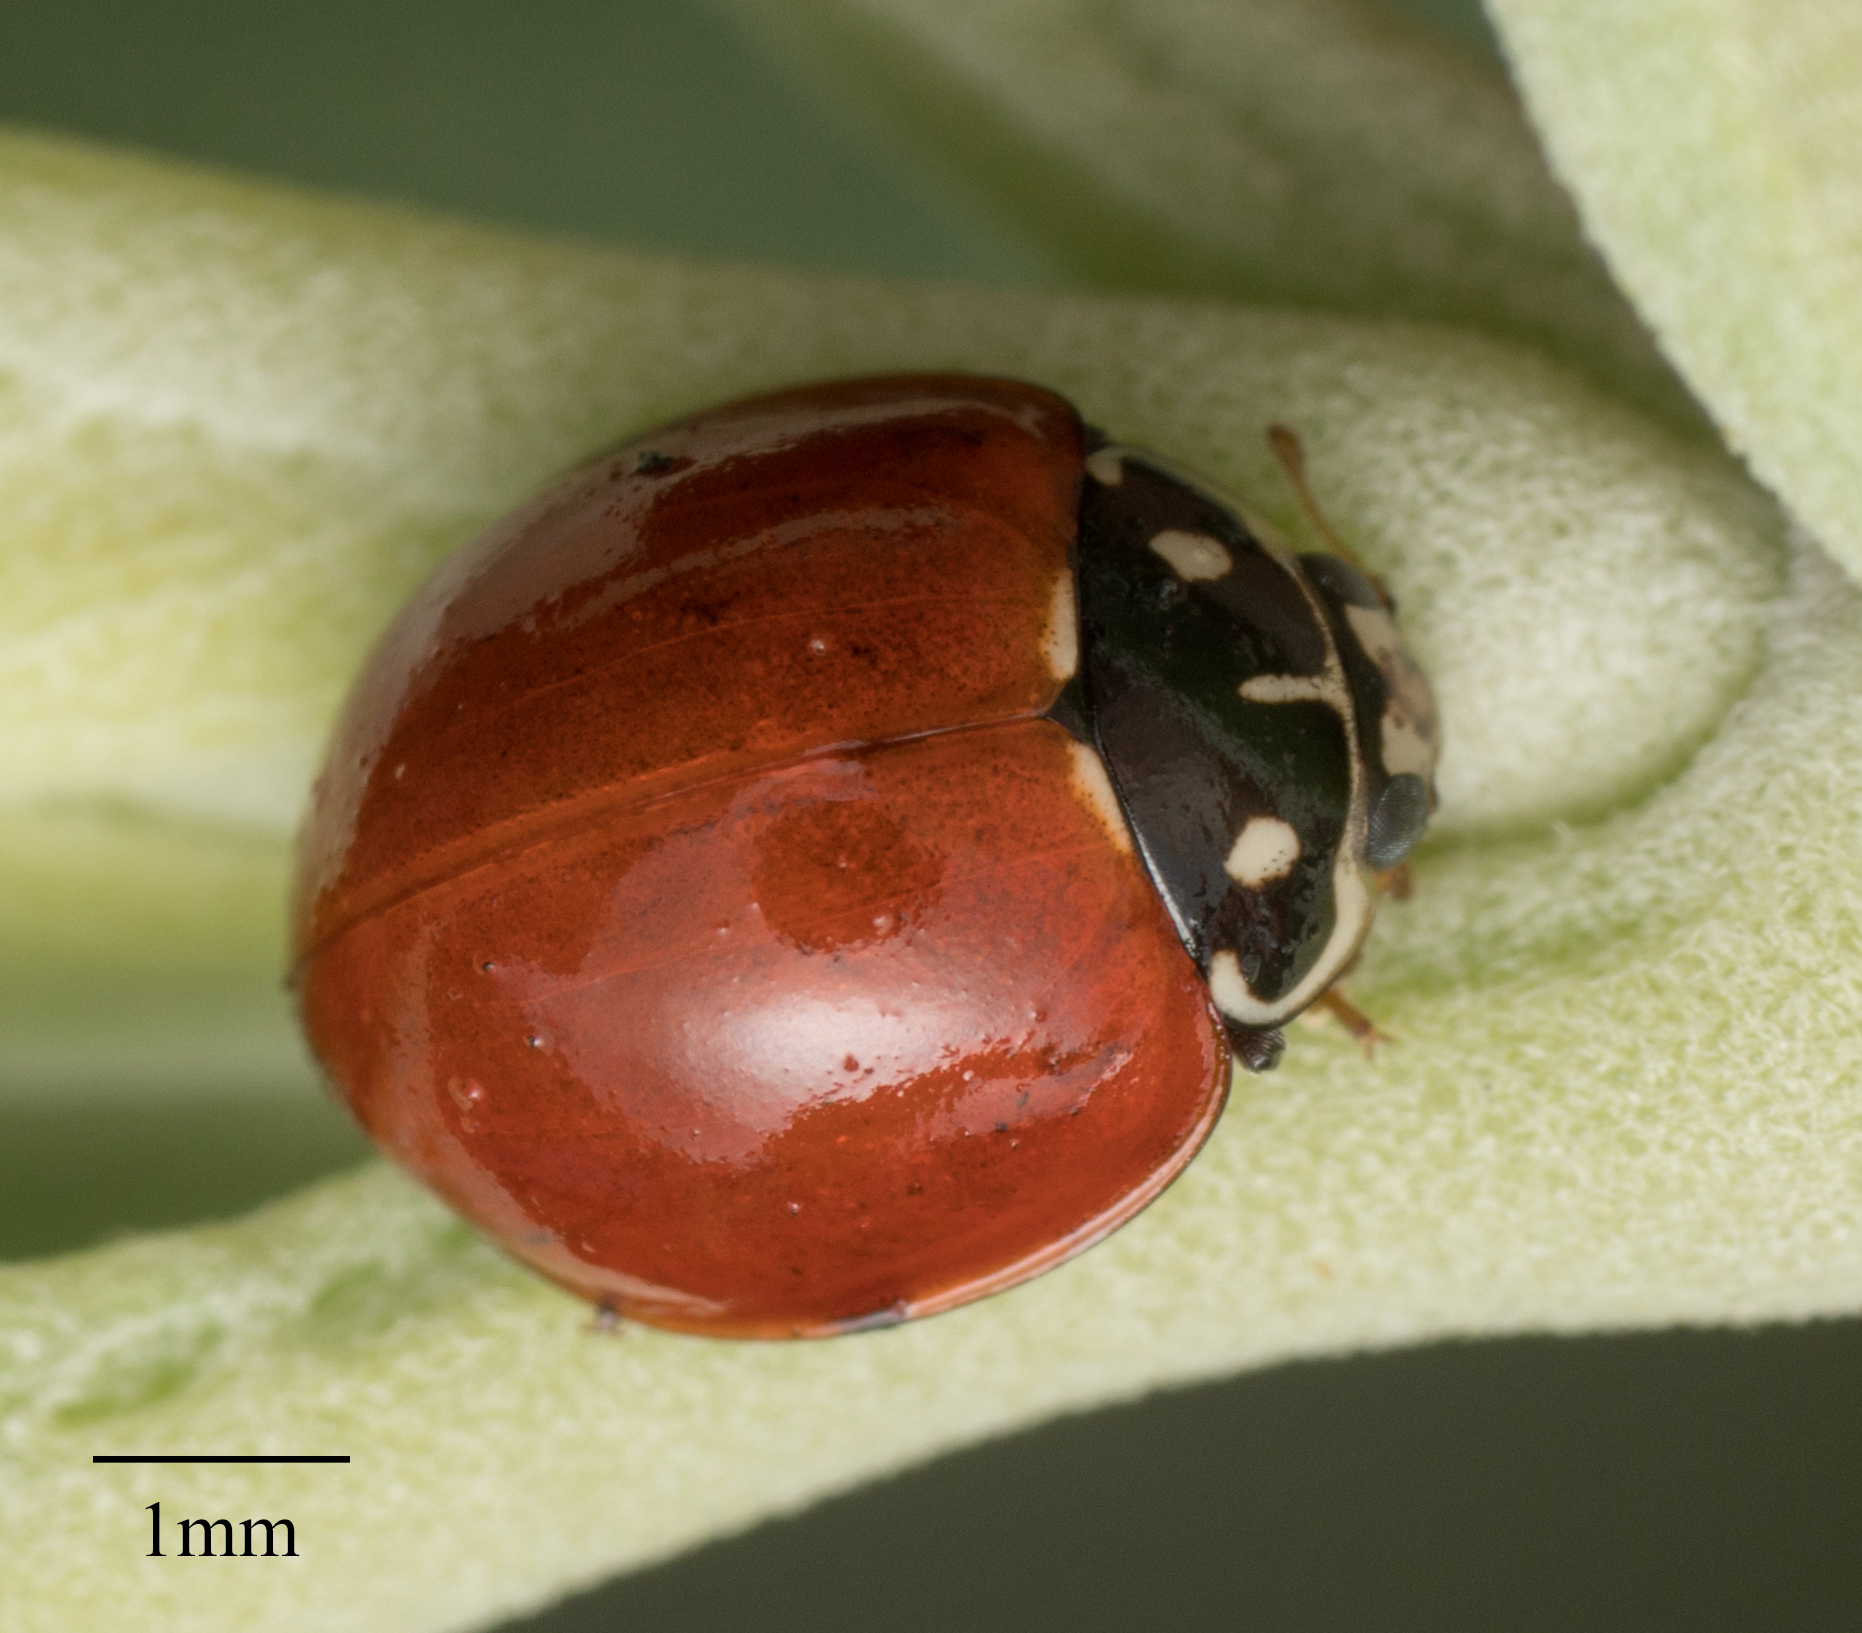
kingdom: Animalia
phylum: Arthropoda
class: Insecta
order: Coleoptera
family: Coccinellidae
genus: Cycloneda
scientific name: Cycloneda sanguinea
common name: Ladybird beetle
